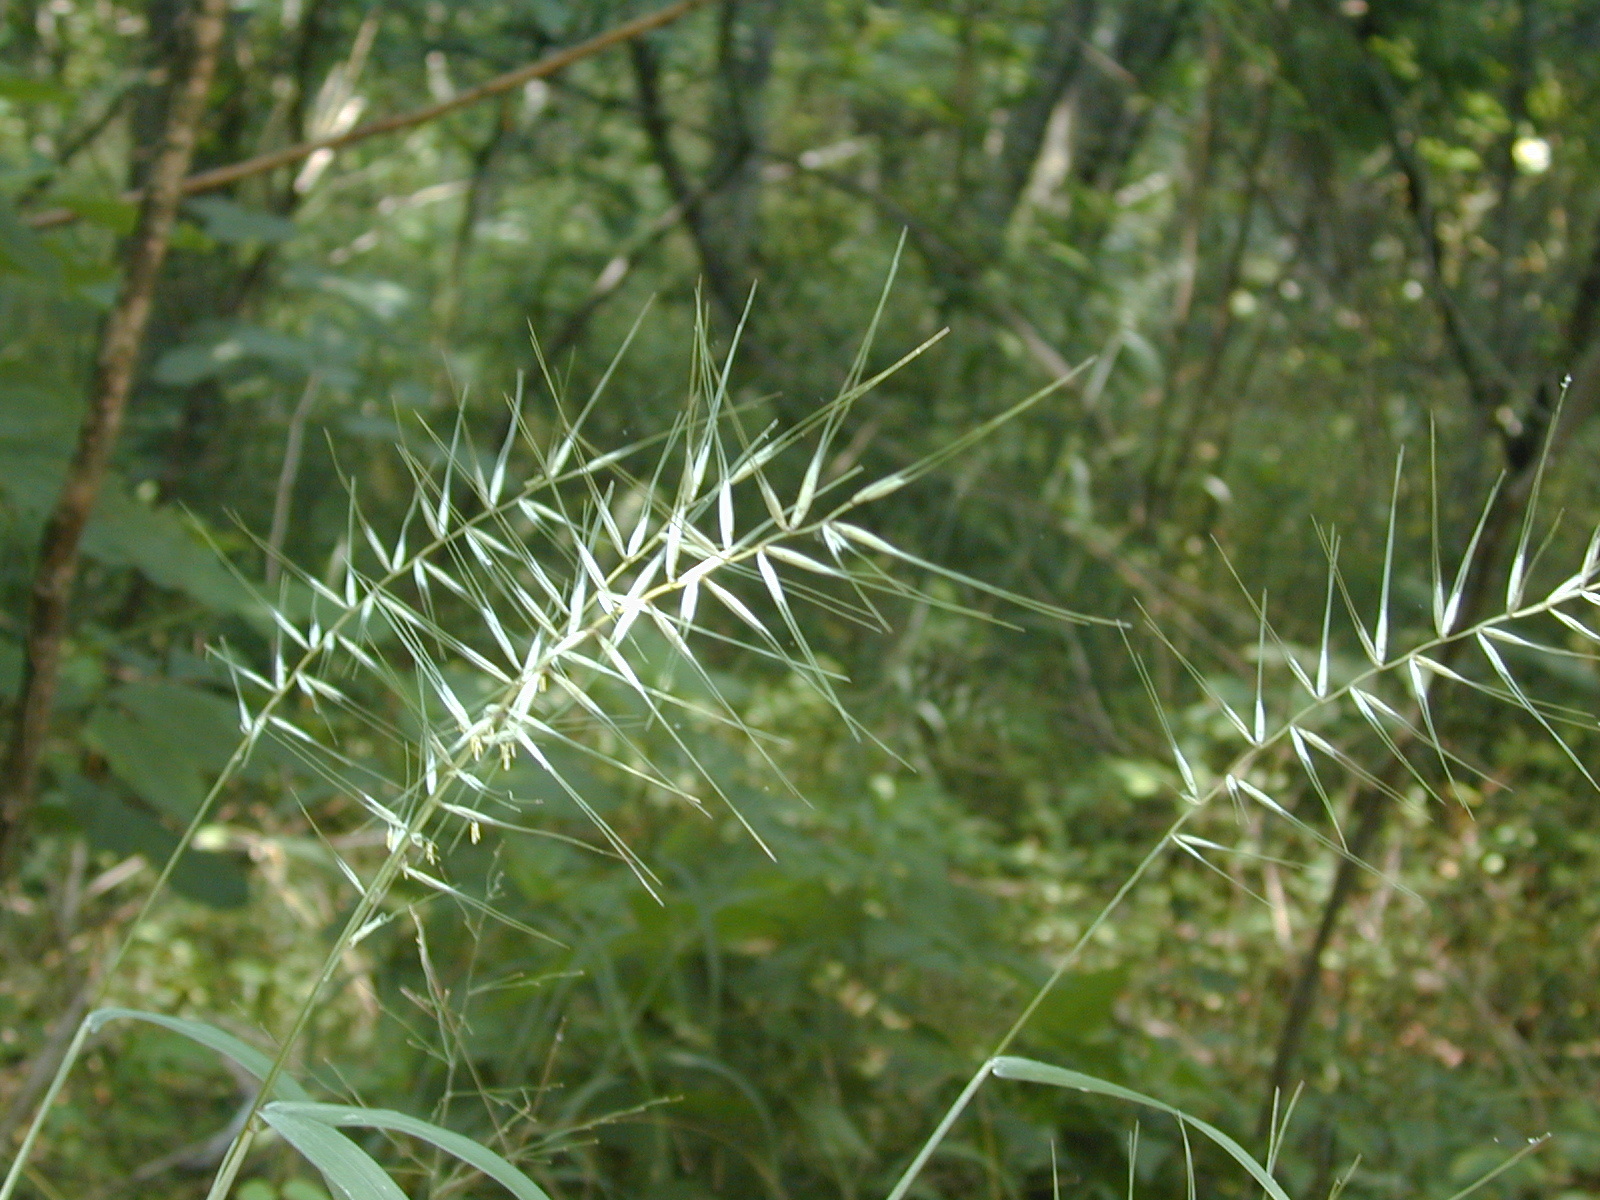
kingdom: Plantae
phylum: Tracheophyta
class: Liliopsida
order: Poales
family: Poaceae
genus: Elymus
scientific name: Elymus hystrix
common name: Bottlebrush grass
